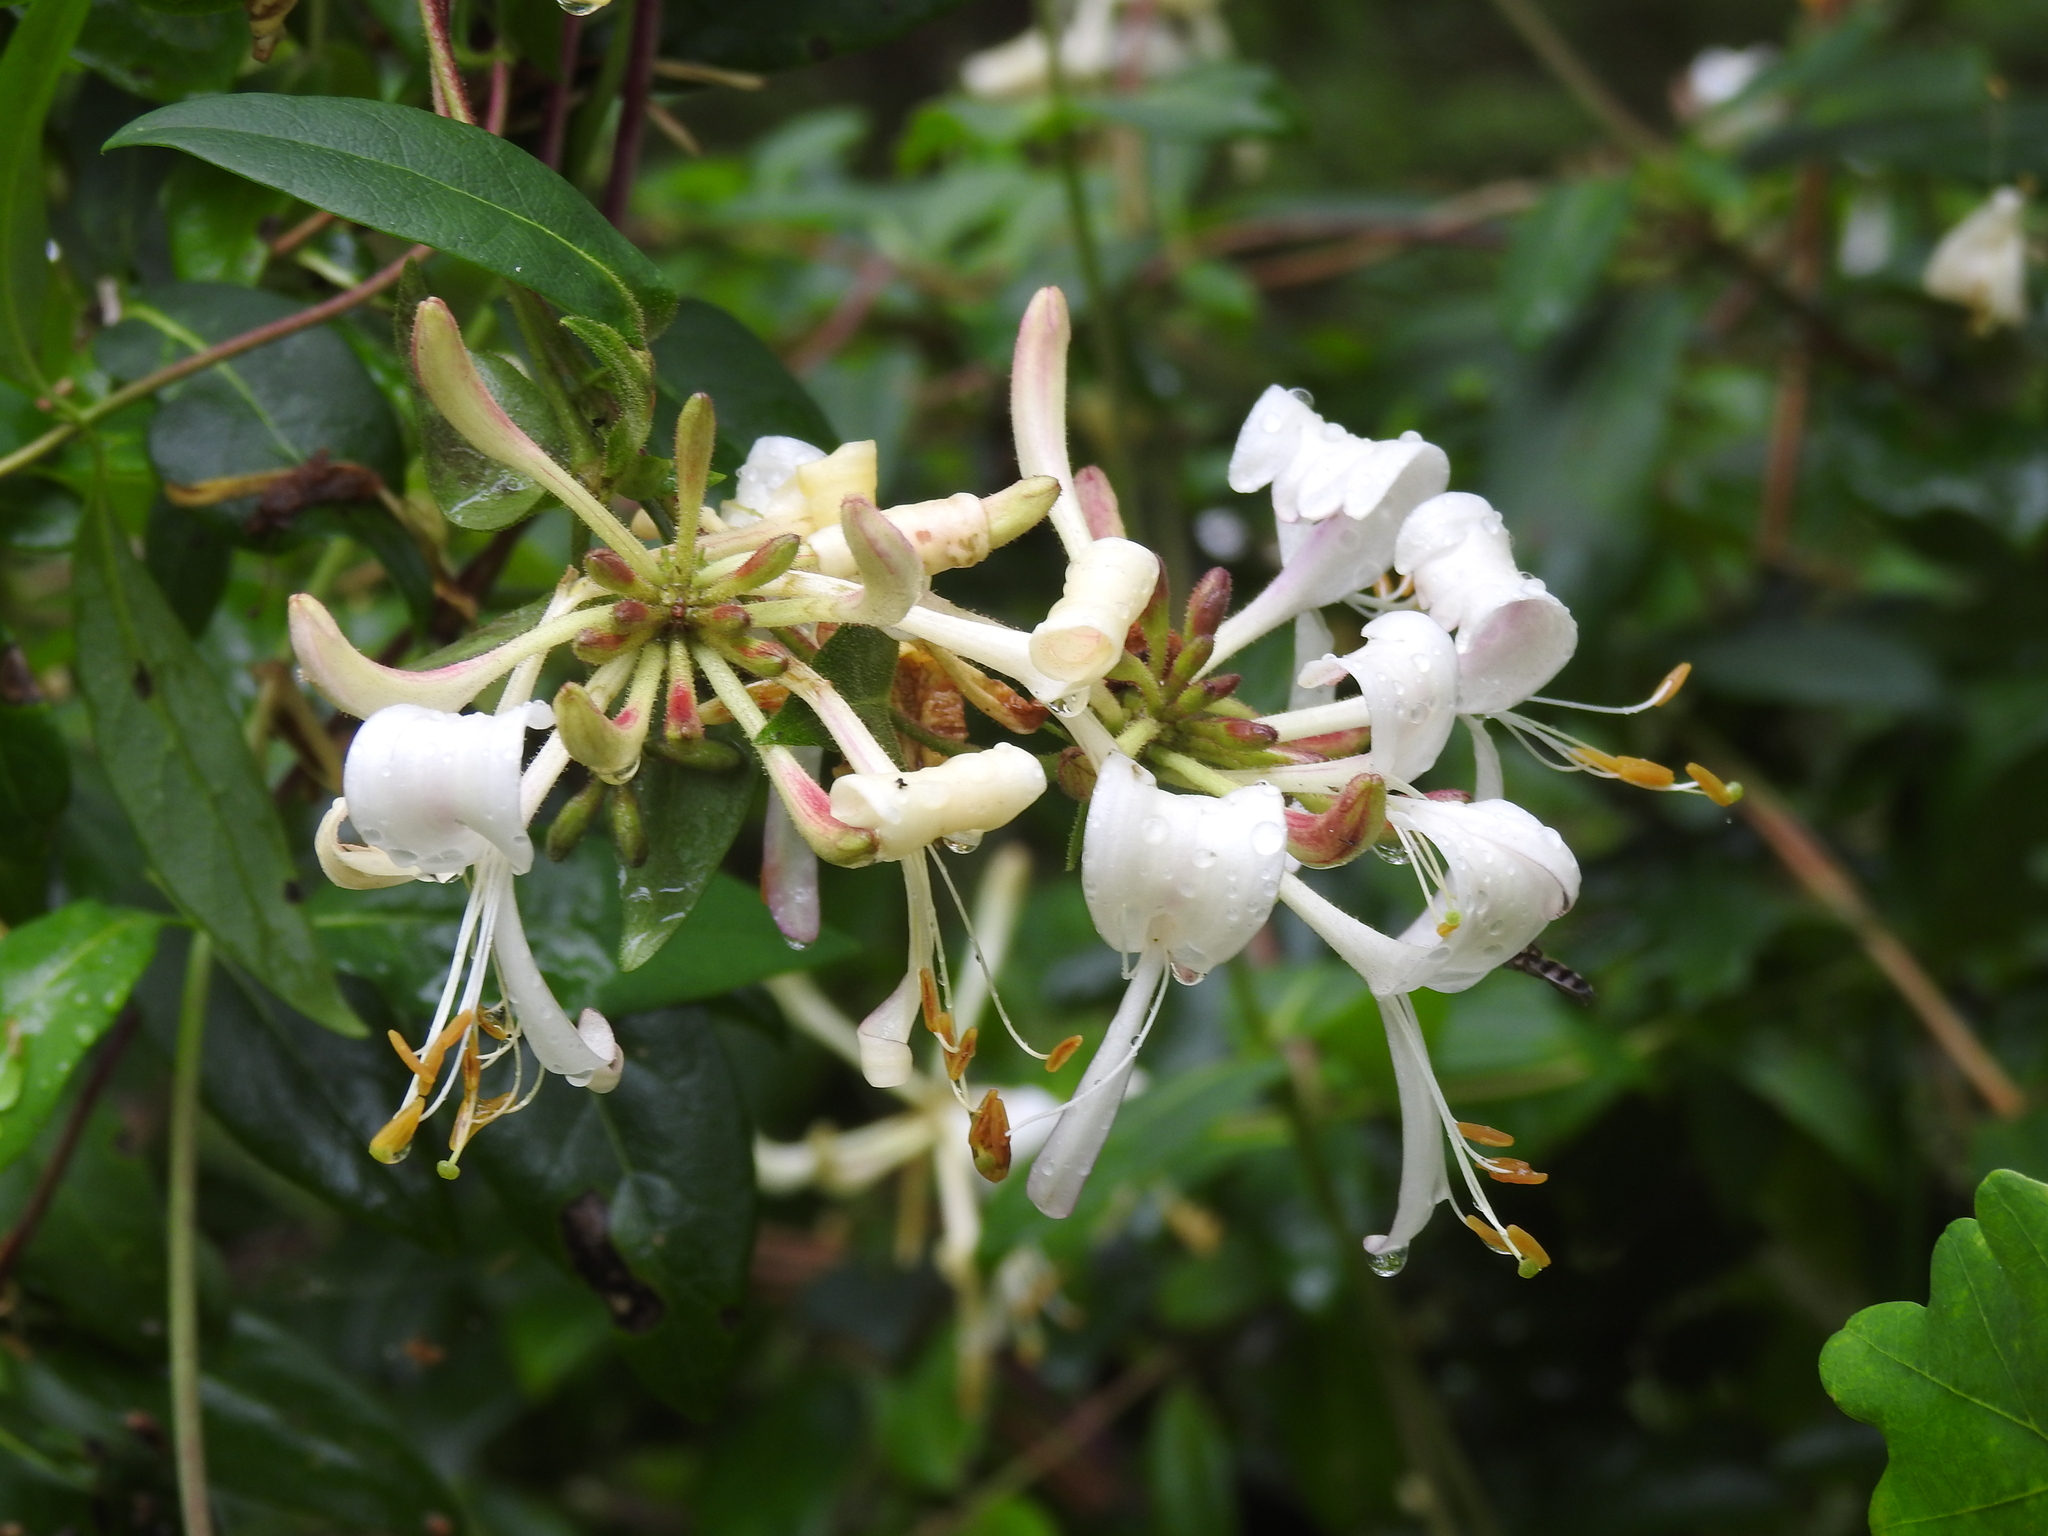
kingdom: Plantae
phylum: Tracheophyta
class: Magnoliopsida
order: Dipsacales
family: Caprifoliaceae
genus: Lonicera
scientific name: Lonicera periclymenum
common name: European honeysuckle
